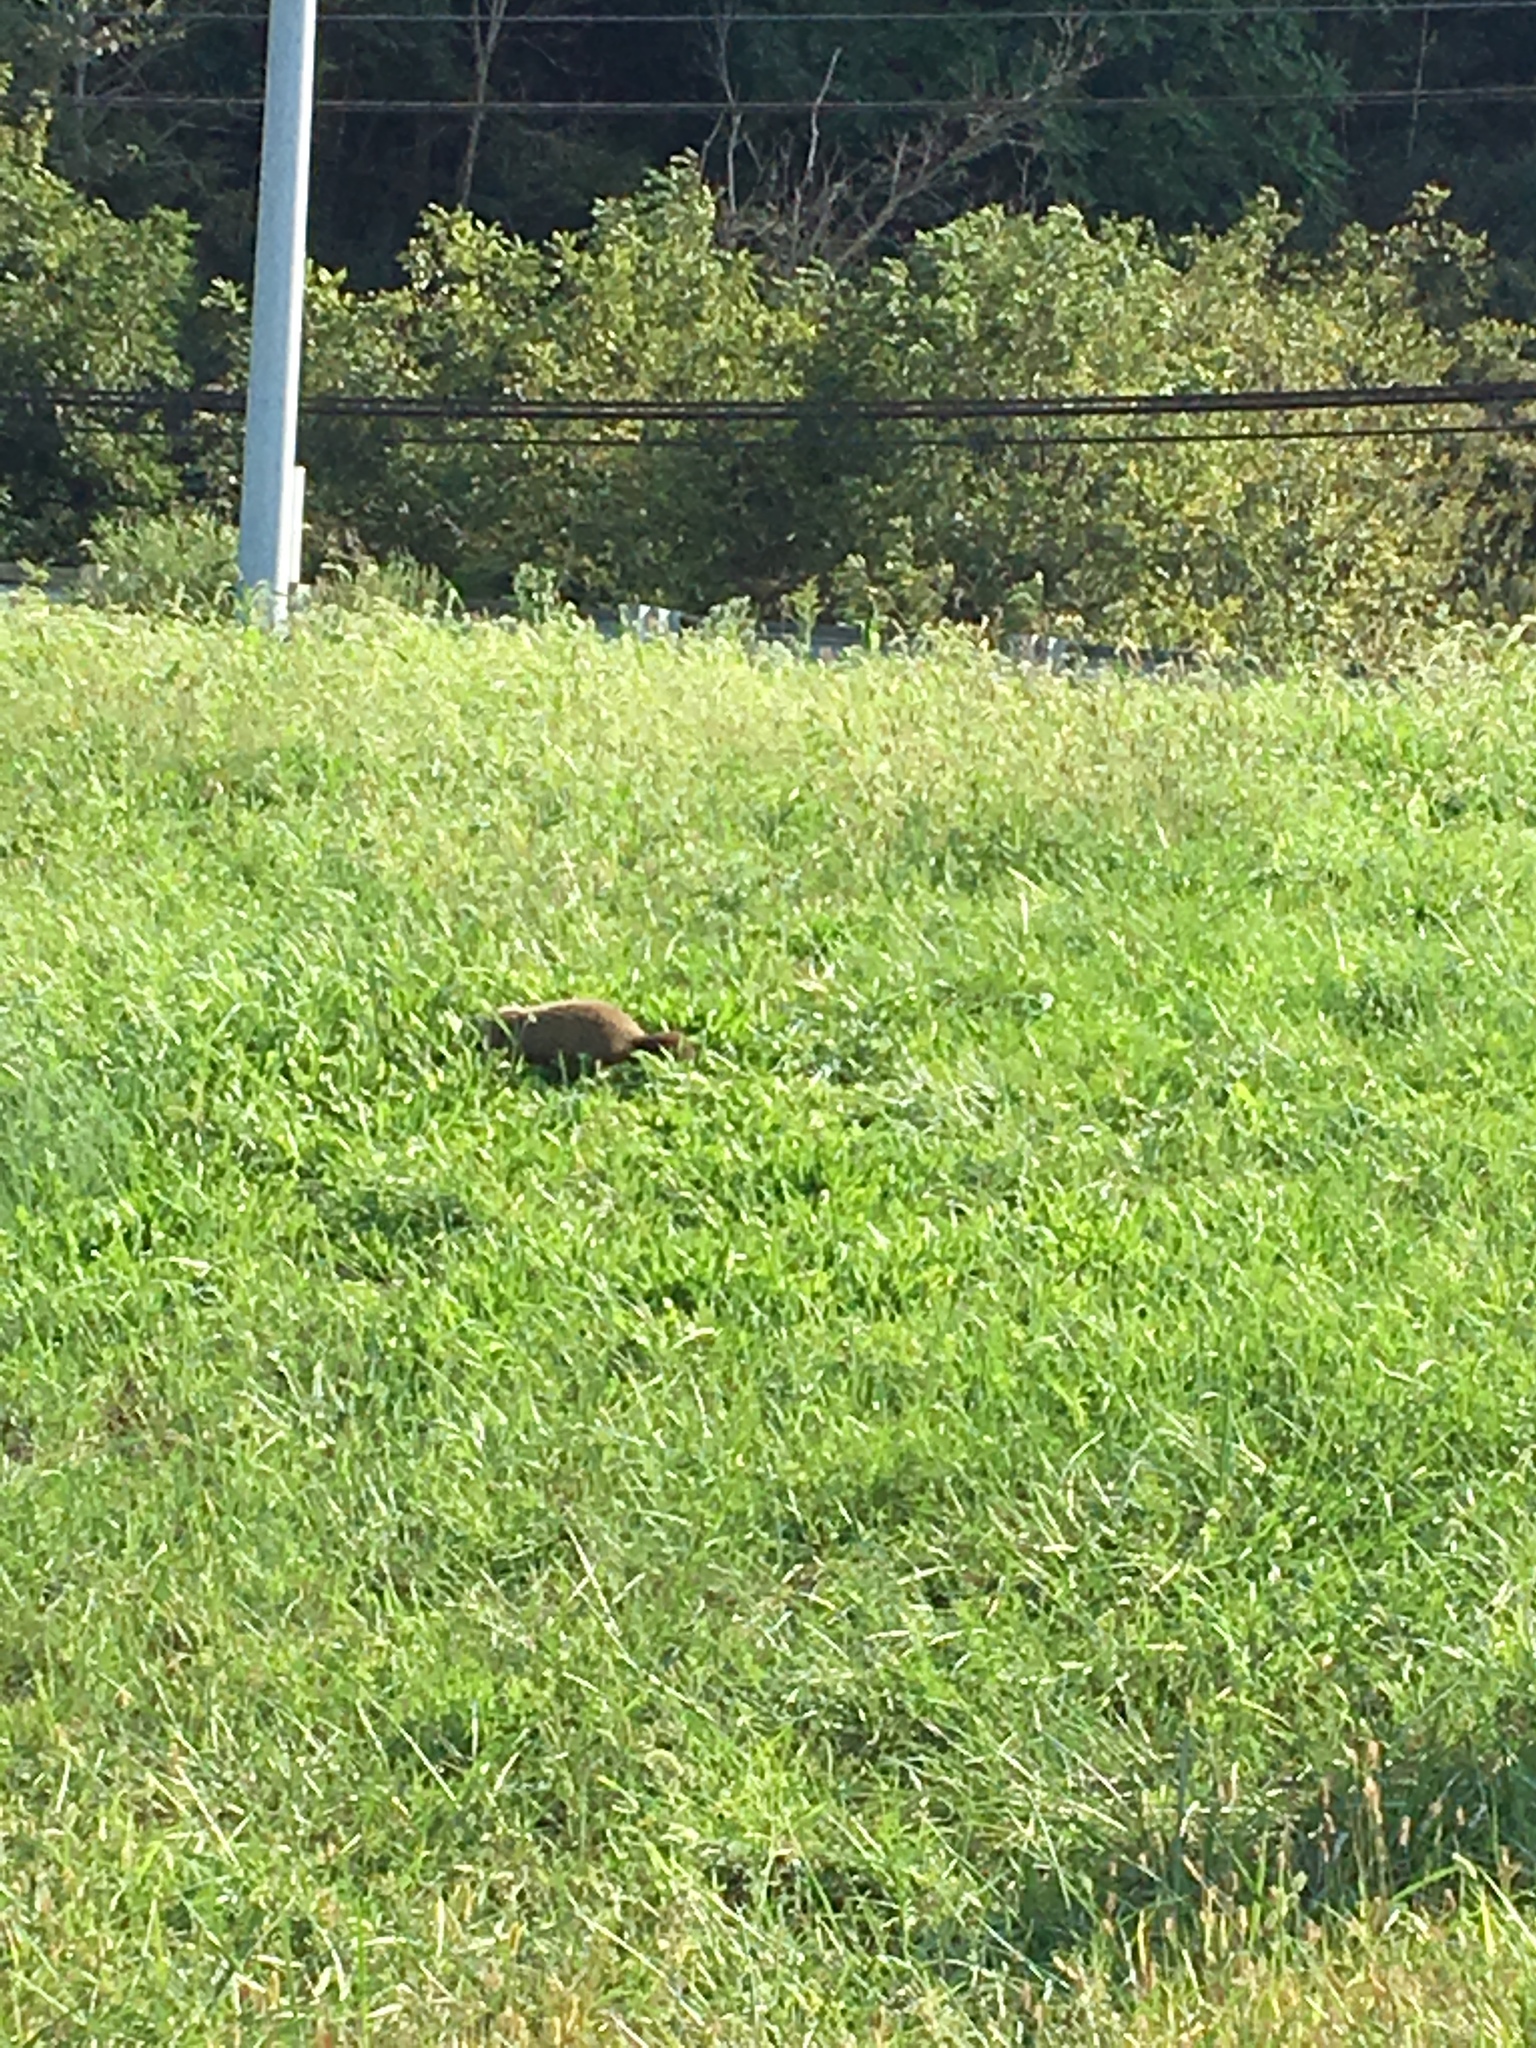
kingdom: Animalia
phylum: Chordata
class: Mammalia
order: Rodentia
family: Sciuridae
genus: Marmota
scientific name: Marmota monax
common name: Groundhog
